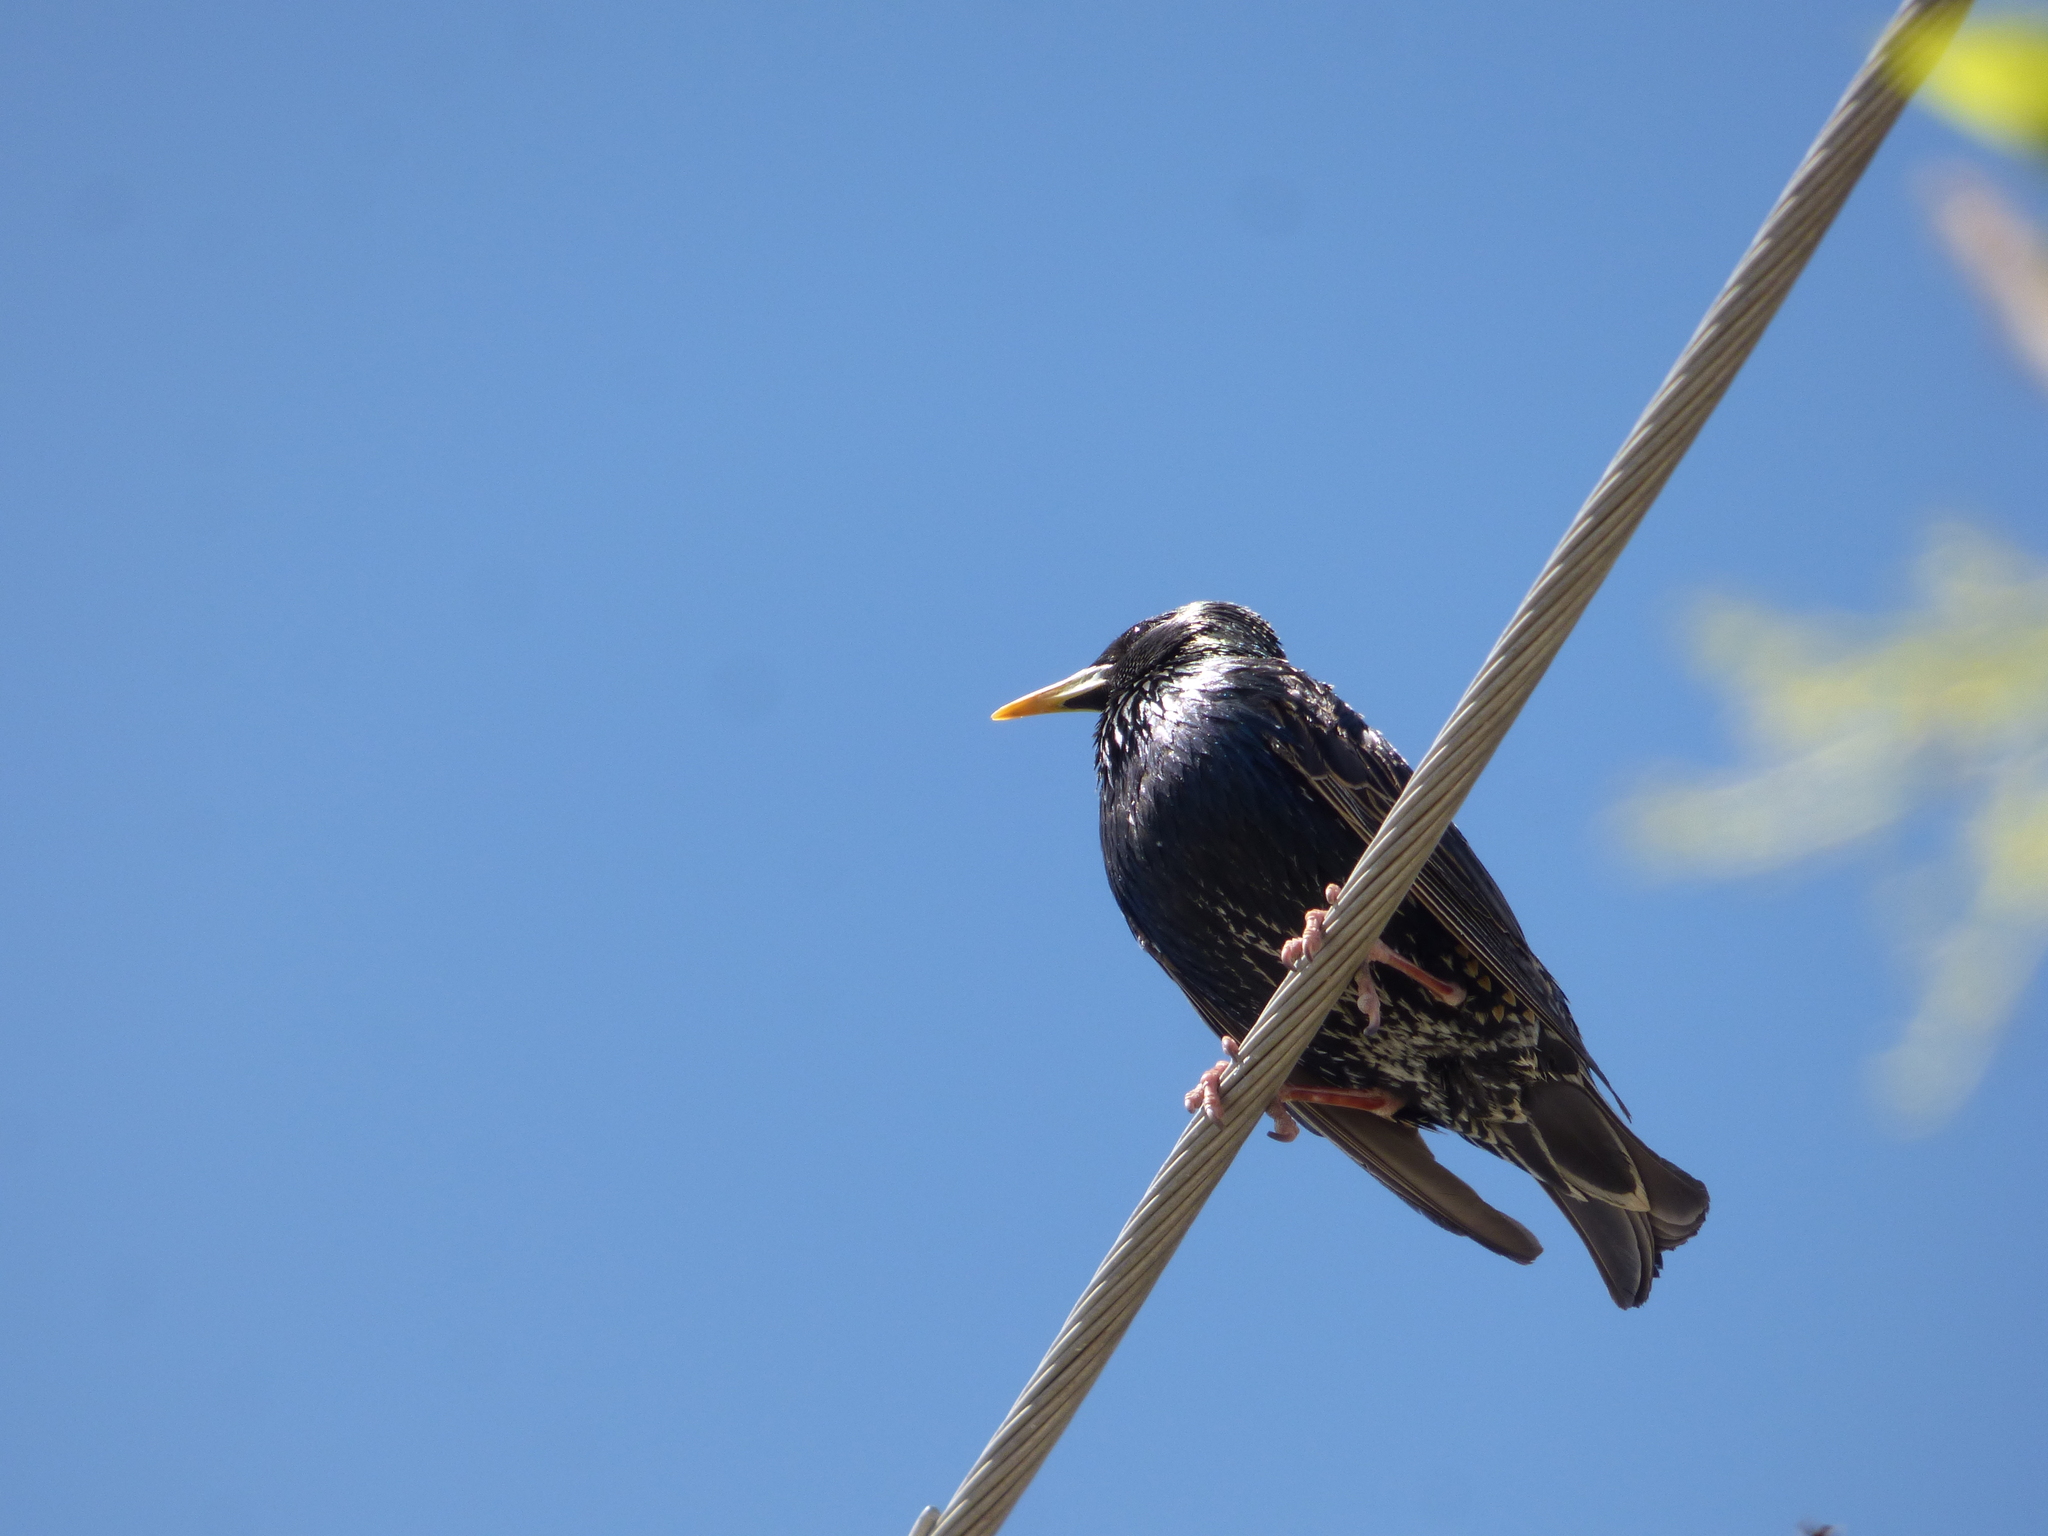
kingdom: Animalia
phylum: Chordata
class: Aves
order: Passeriformes
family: Sturnidae
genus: Sturnus
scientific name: Sturnus vulgaris
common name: Common starling
